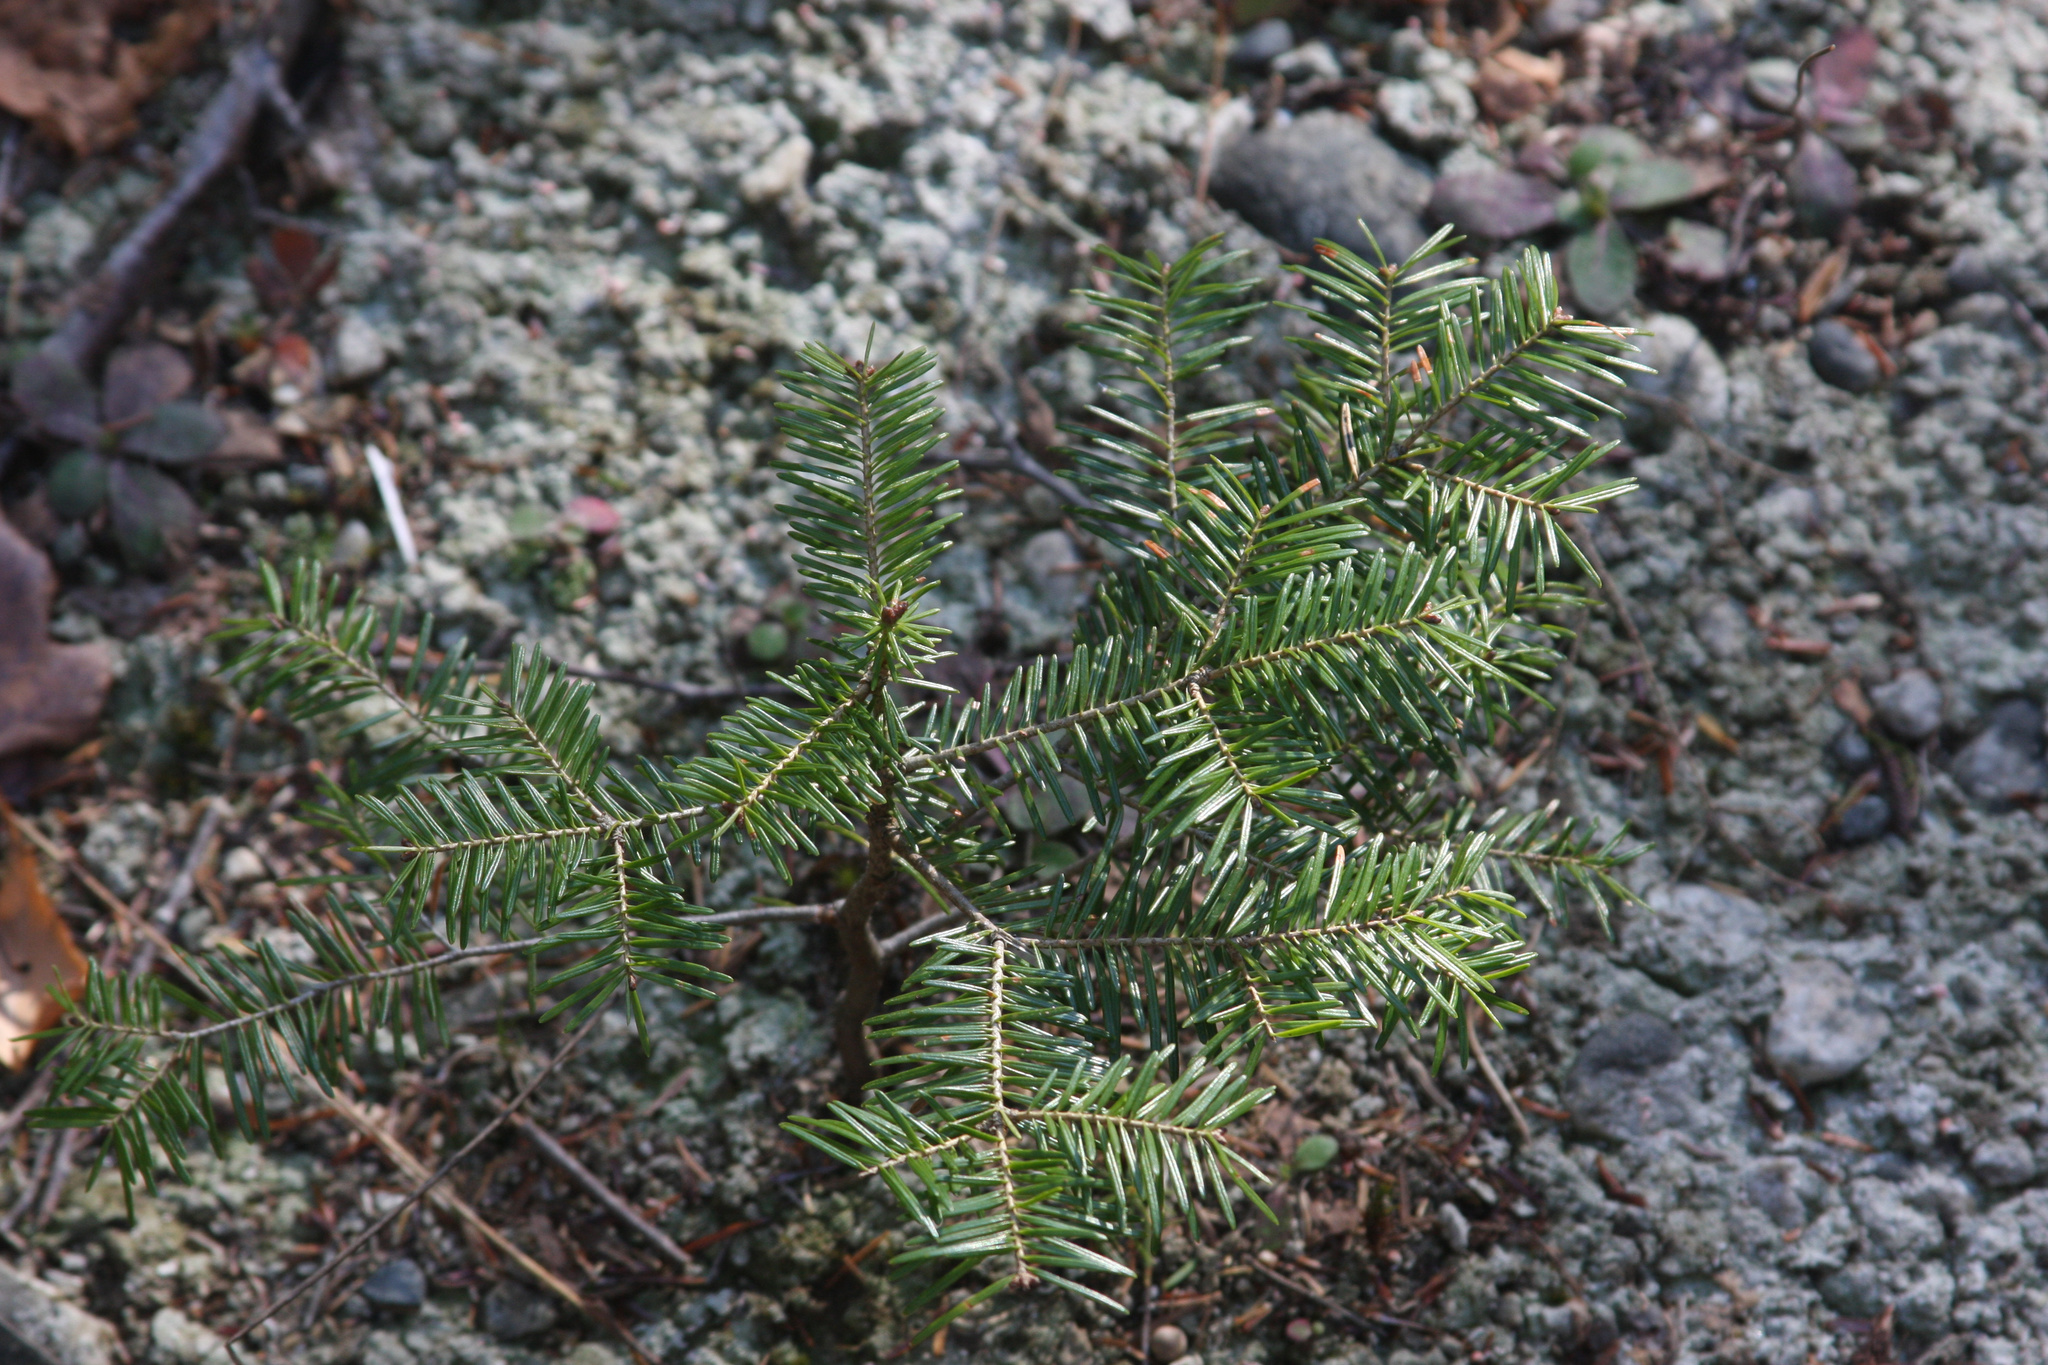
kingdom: Plantae
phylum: Tracheophyta
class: Pinopsida
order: Pinales
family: Pinaceae
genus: Abies
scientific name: Abies balsamea
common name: Balsam fir
